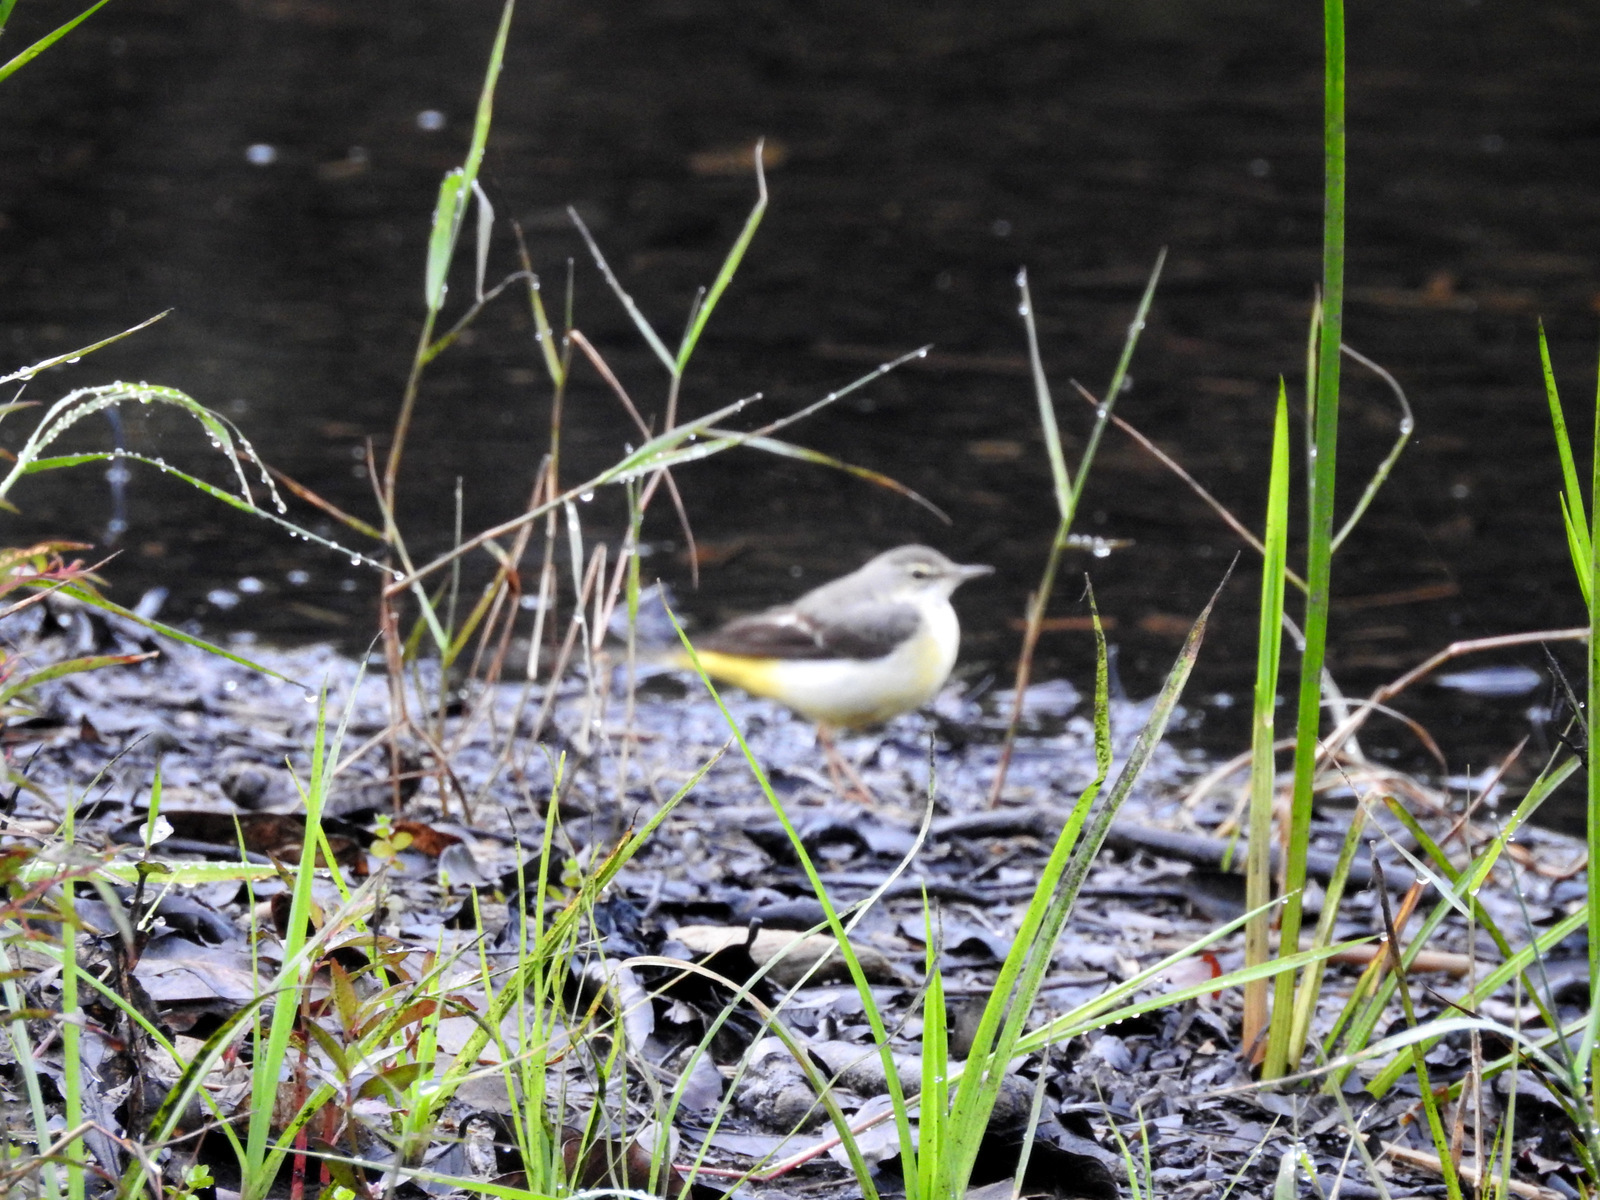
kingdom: Animalia
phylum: Chordata
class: Aves
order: Passeriformes
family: Motacillidae
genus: Motacilla
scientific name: Motacilla cinerea
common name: Grey wagtail
